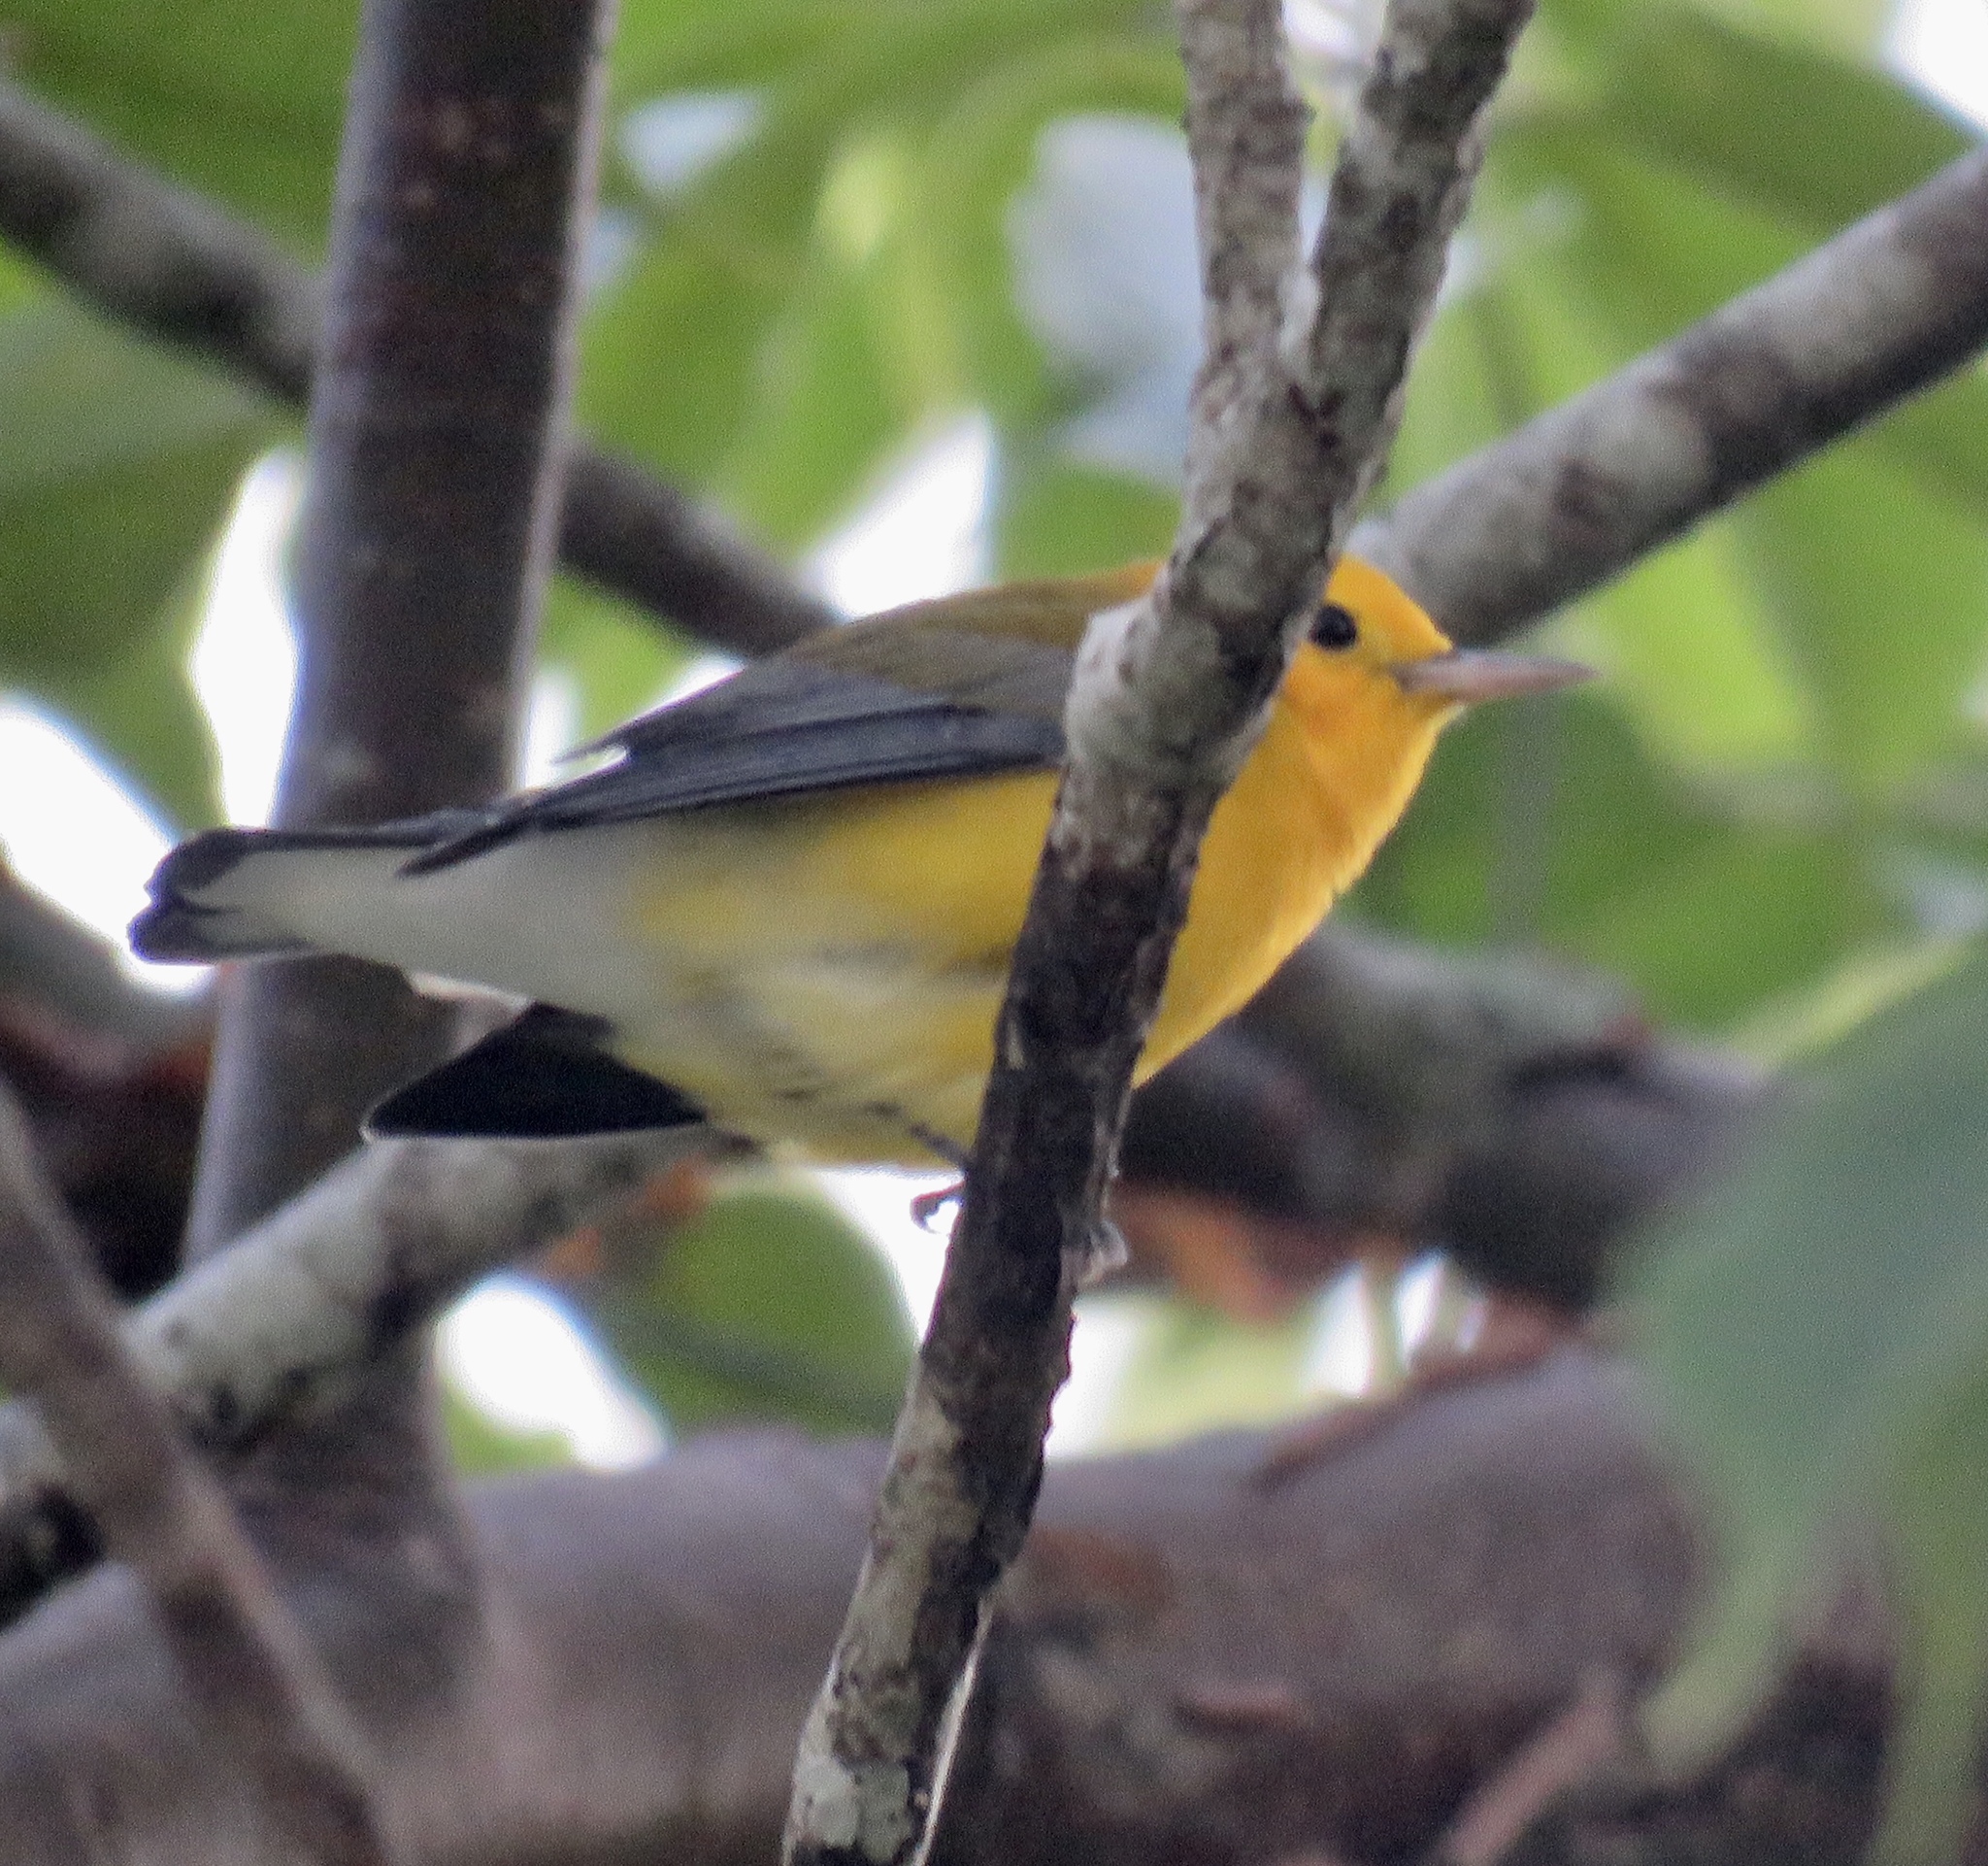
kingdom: Animalia
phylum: Chordata
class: Aves
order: Passeriformes
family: Parulidae
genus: Protonotaria
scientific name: Protonotaria citrea
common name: Prothonotary warbler
